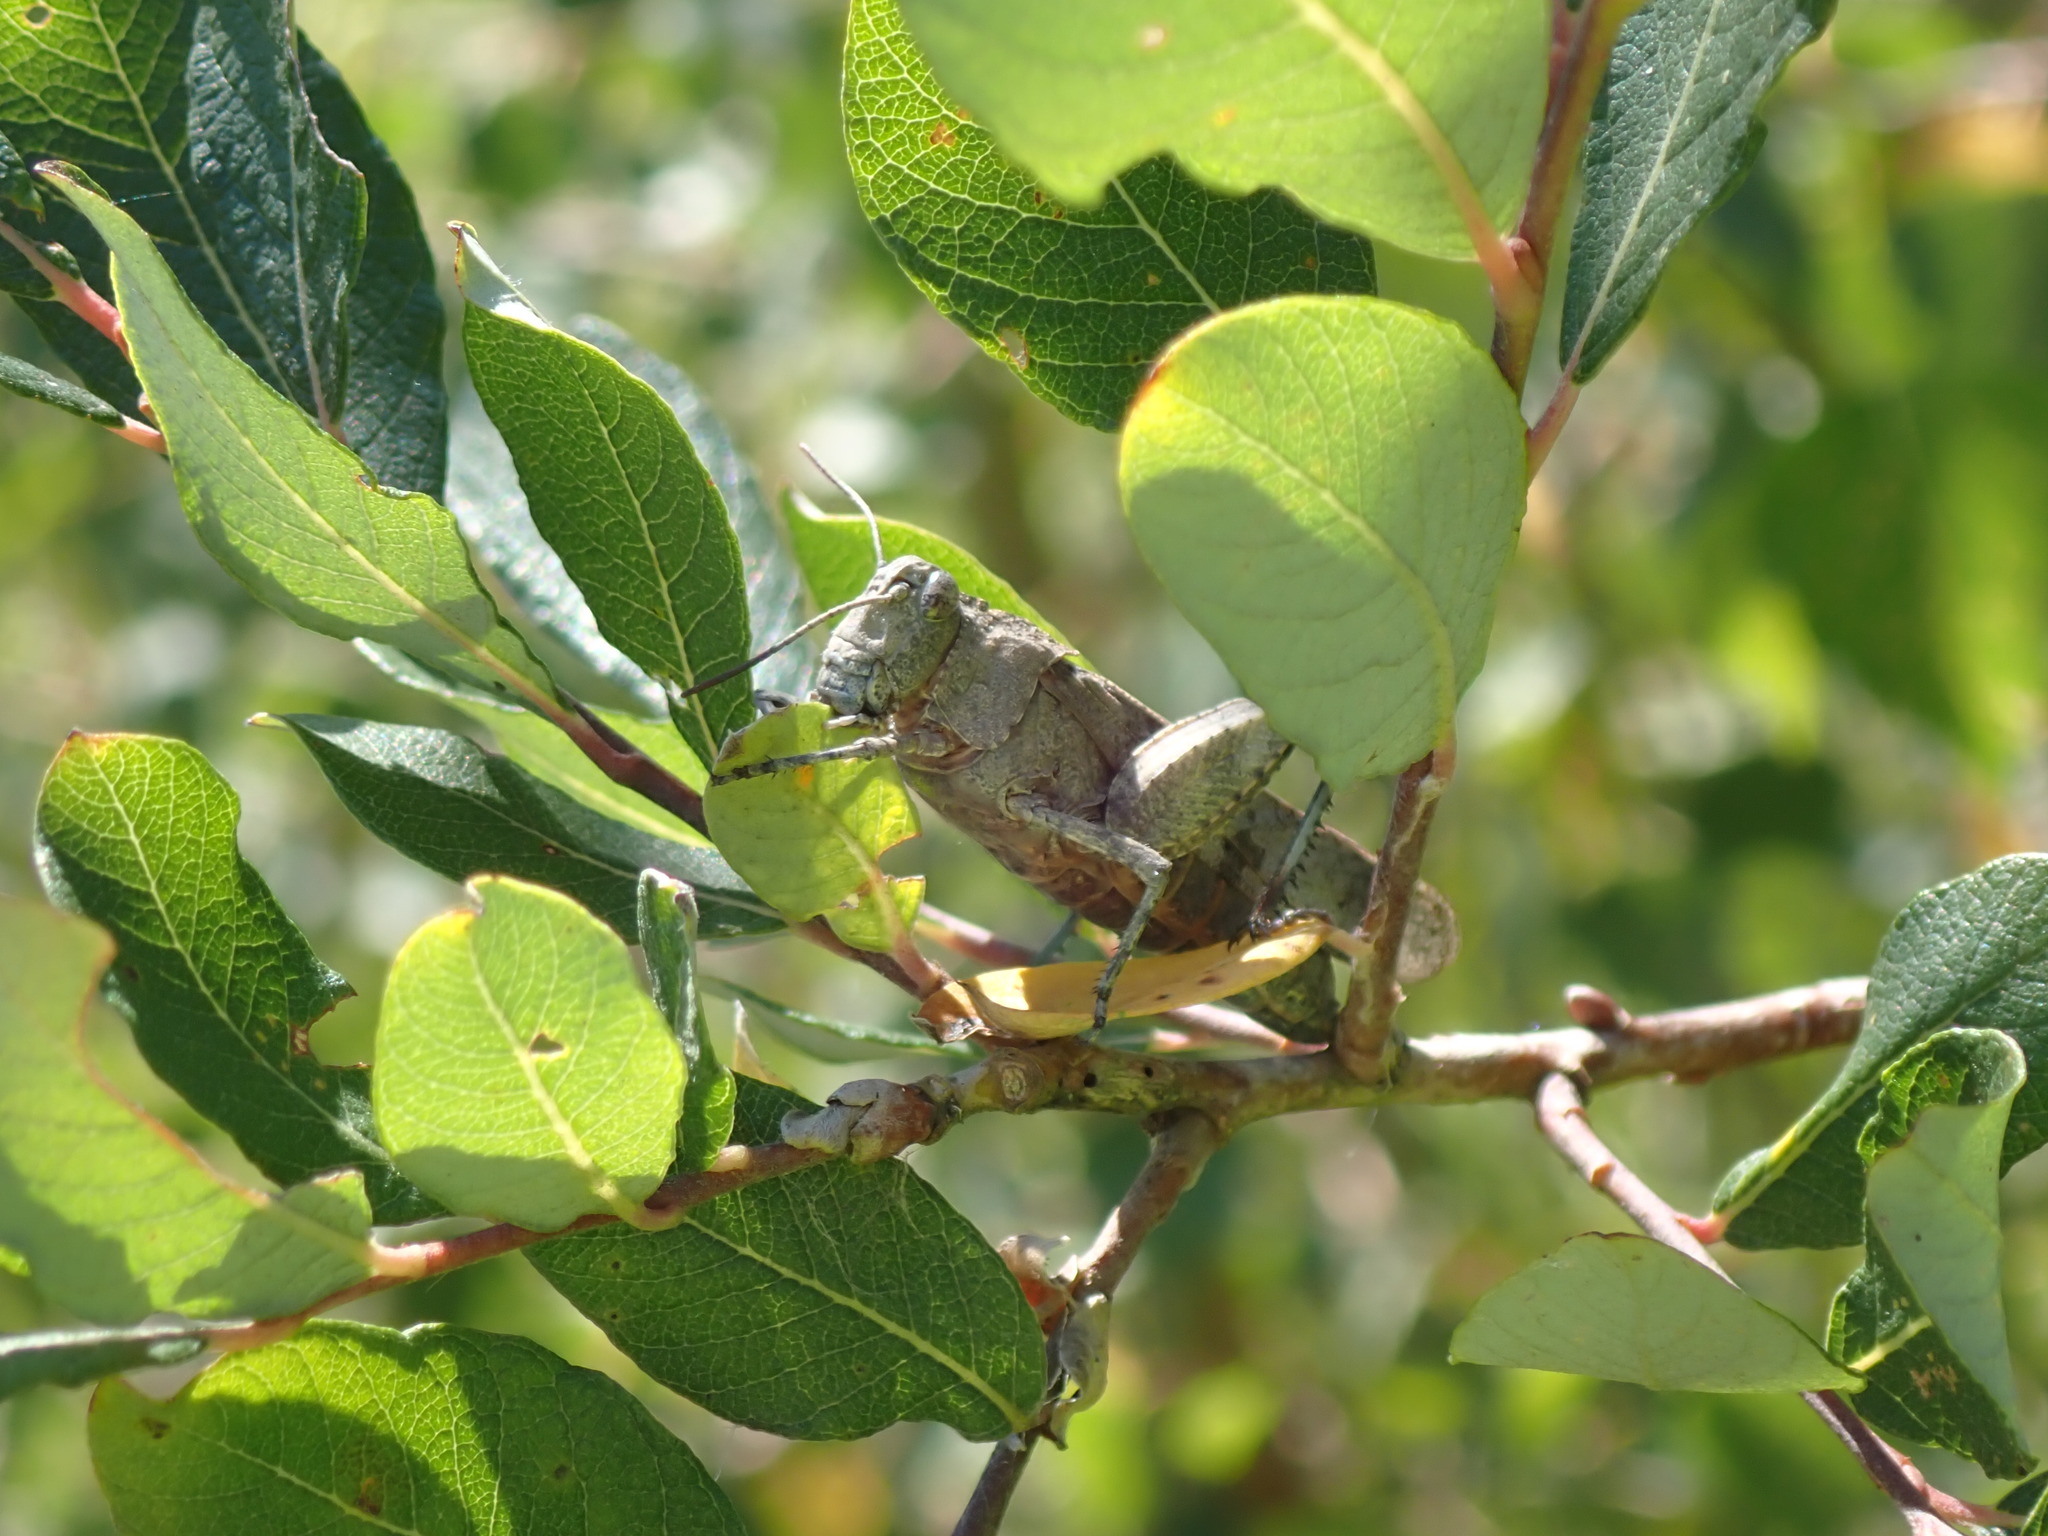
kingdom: Animalia
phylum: Arthropoda
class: Insecta
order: Orthoptera
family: Acrididae
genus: Oedipoda
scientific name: Oedipoda caerulescens
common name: Blue-winged grasshopper
